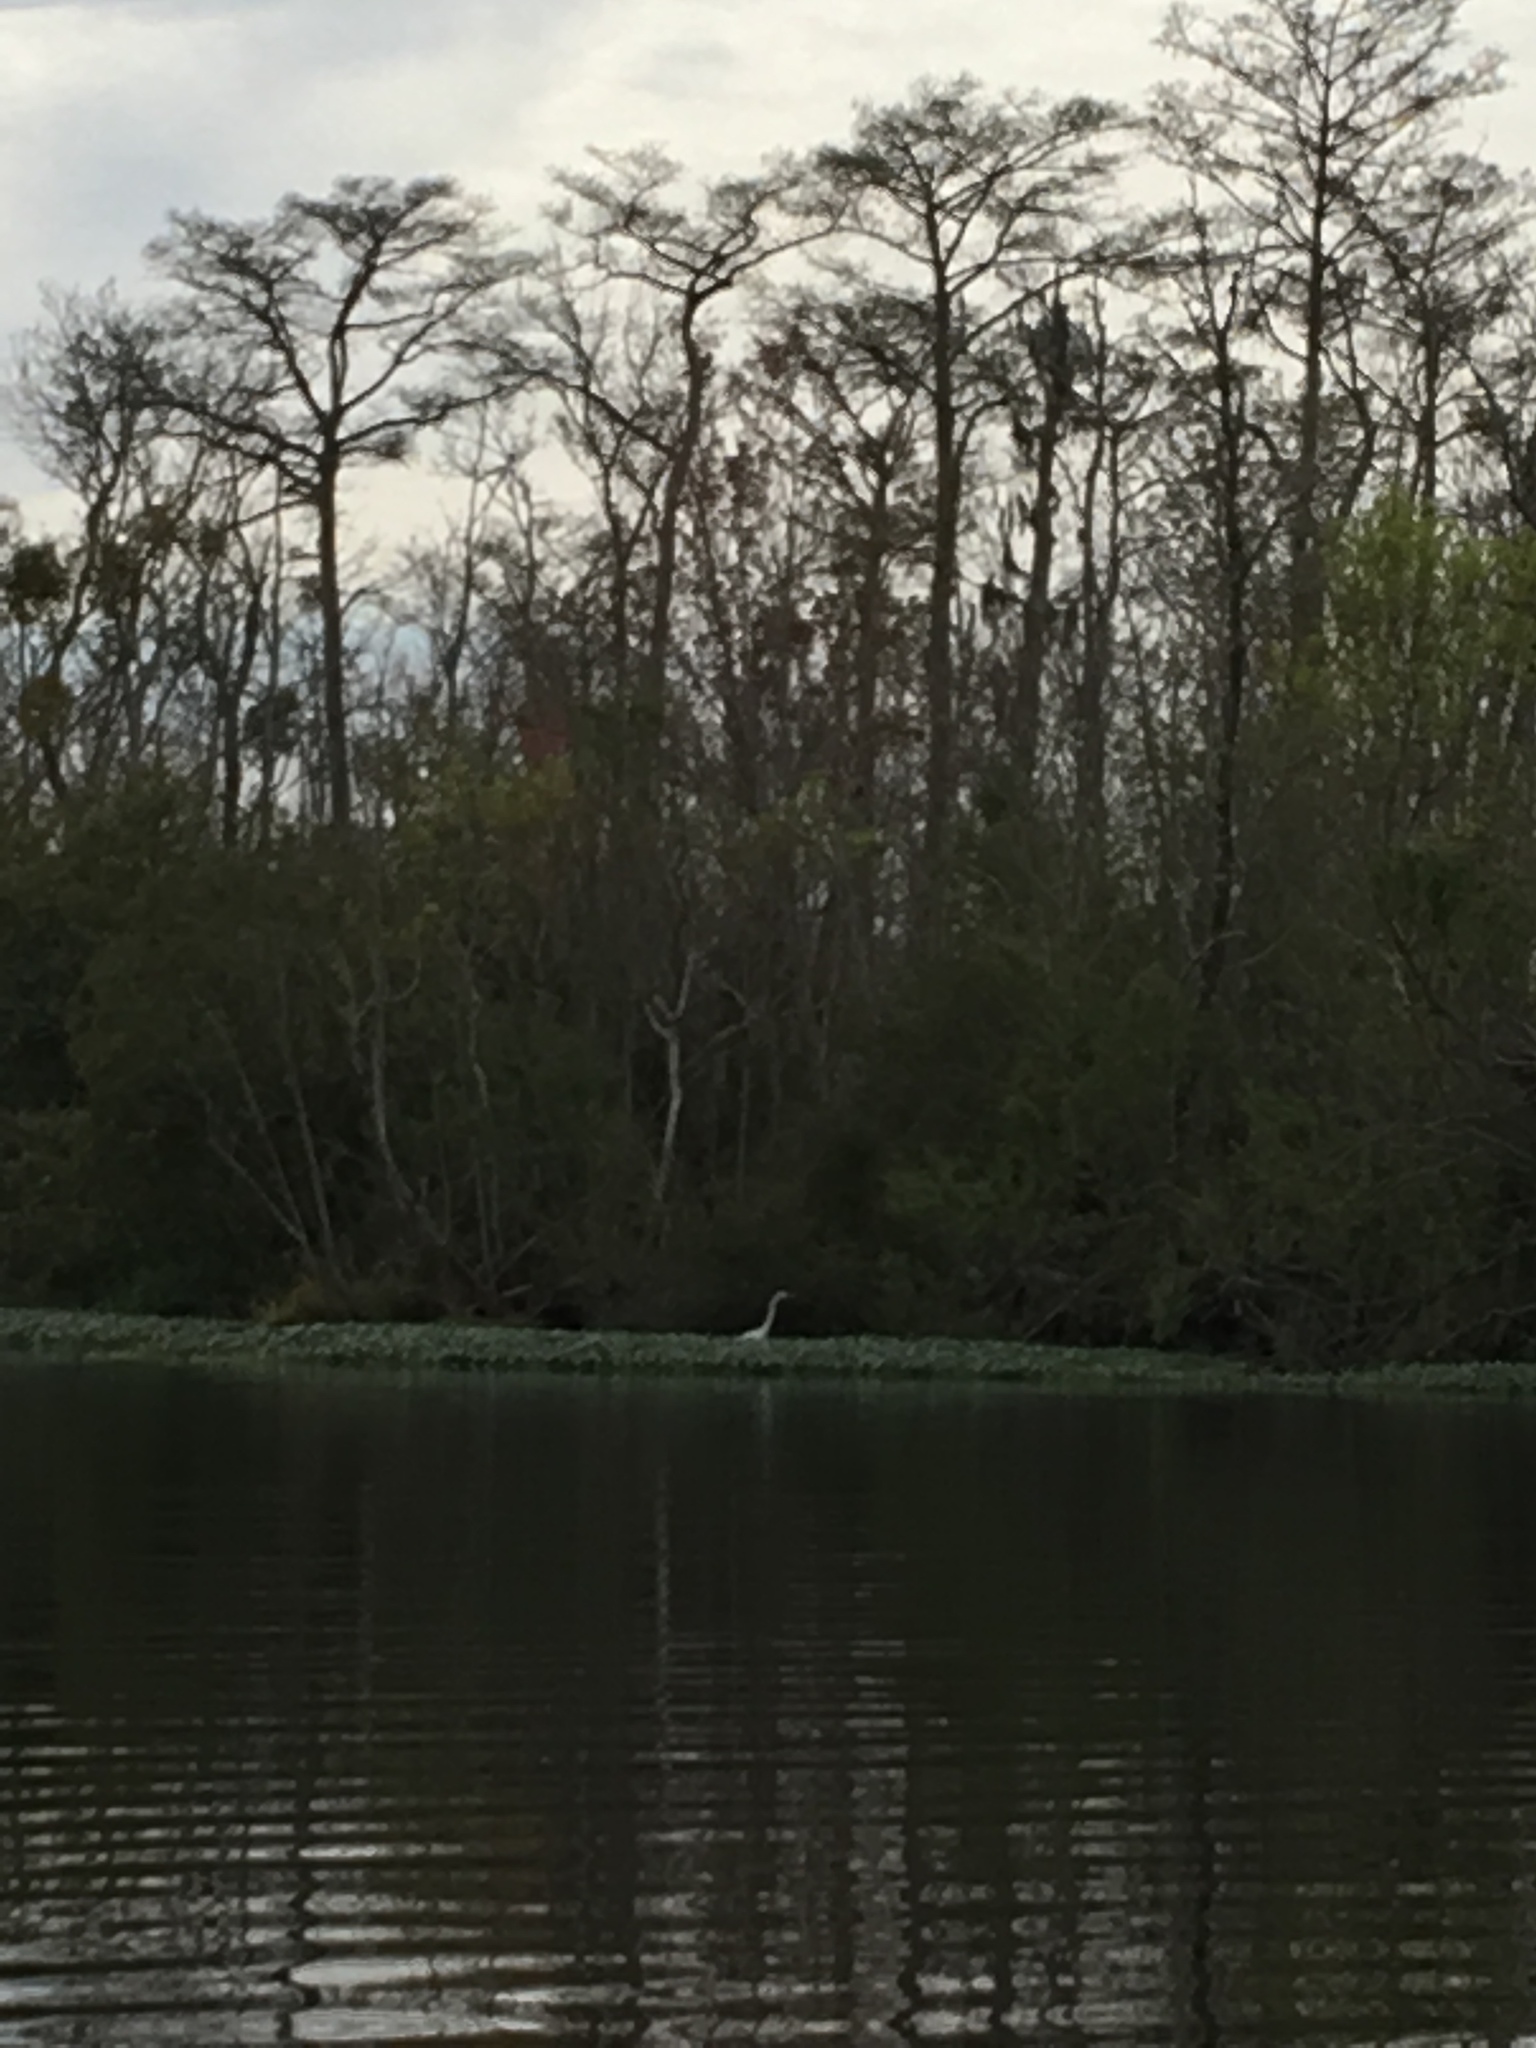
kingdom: Animalia
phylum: Chordata
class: Aves
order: Pelecaniformes
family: Ardeidae
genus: Ardea
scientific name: Ardea alba
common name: Great egret
